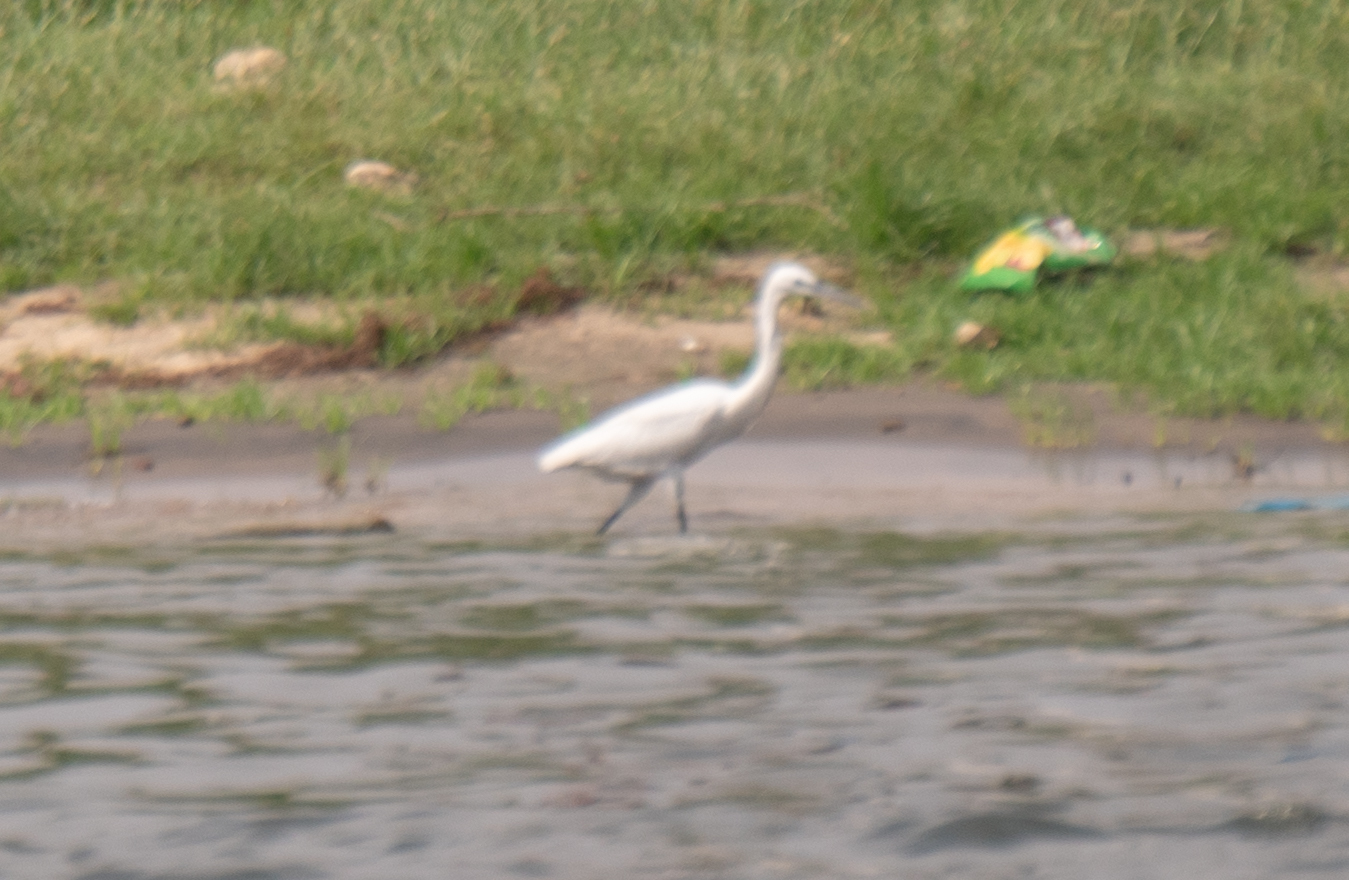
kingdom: Animalia
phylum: Chordata
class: Aves
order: Pelecaniformes
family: Ardeidae
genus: Egretta
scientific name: Egretta garzetta
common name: Little egret
